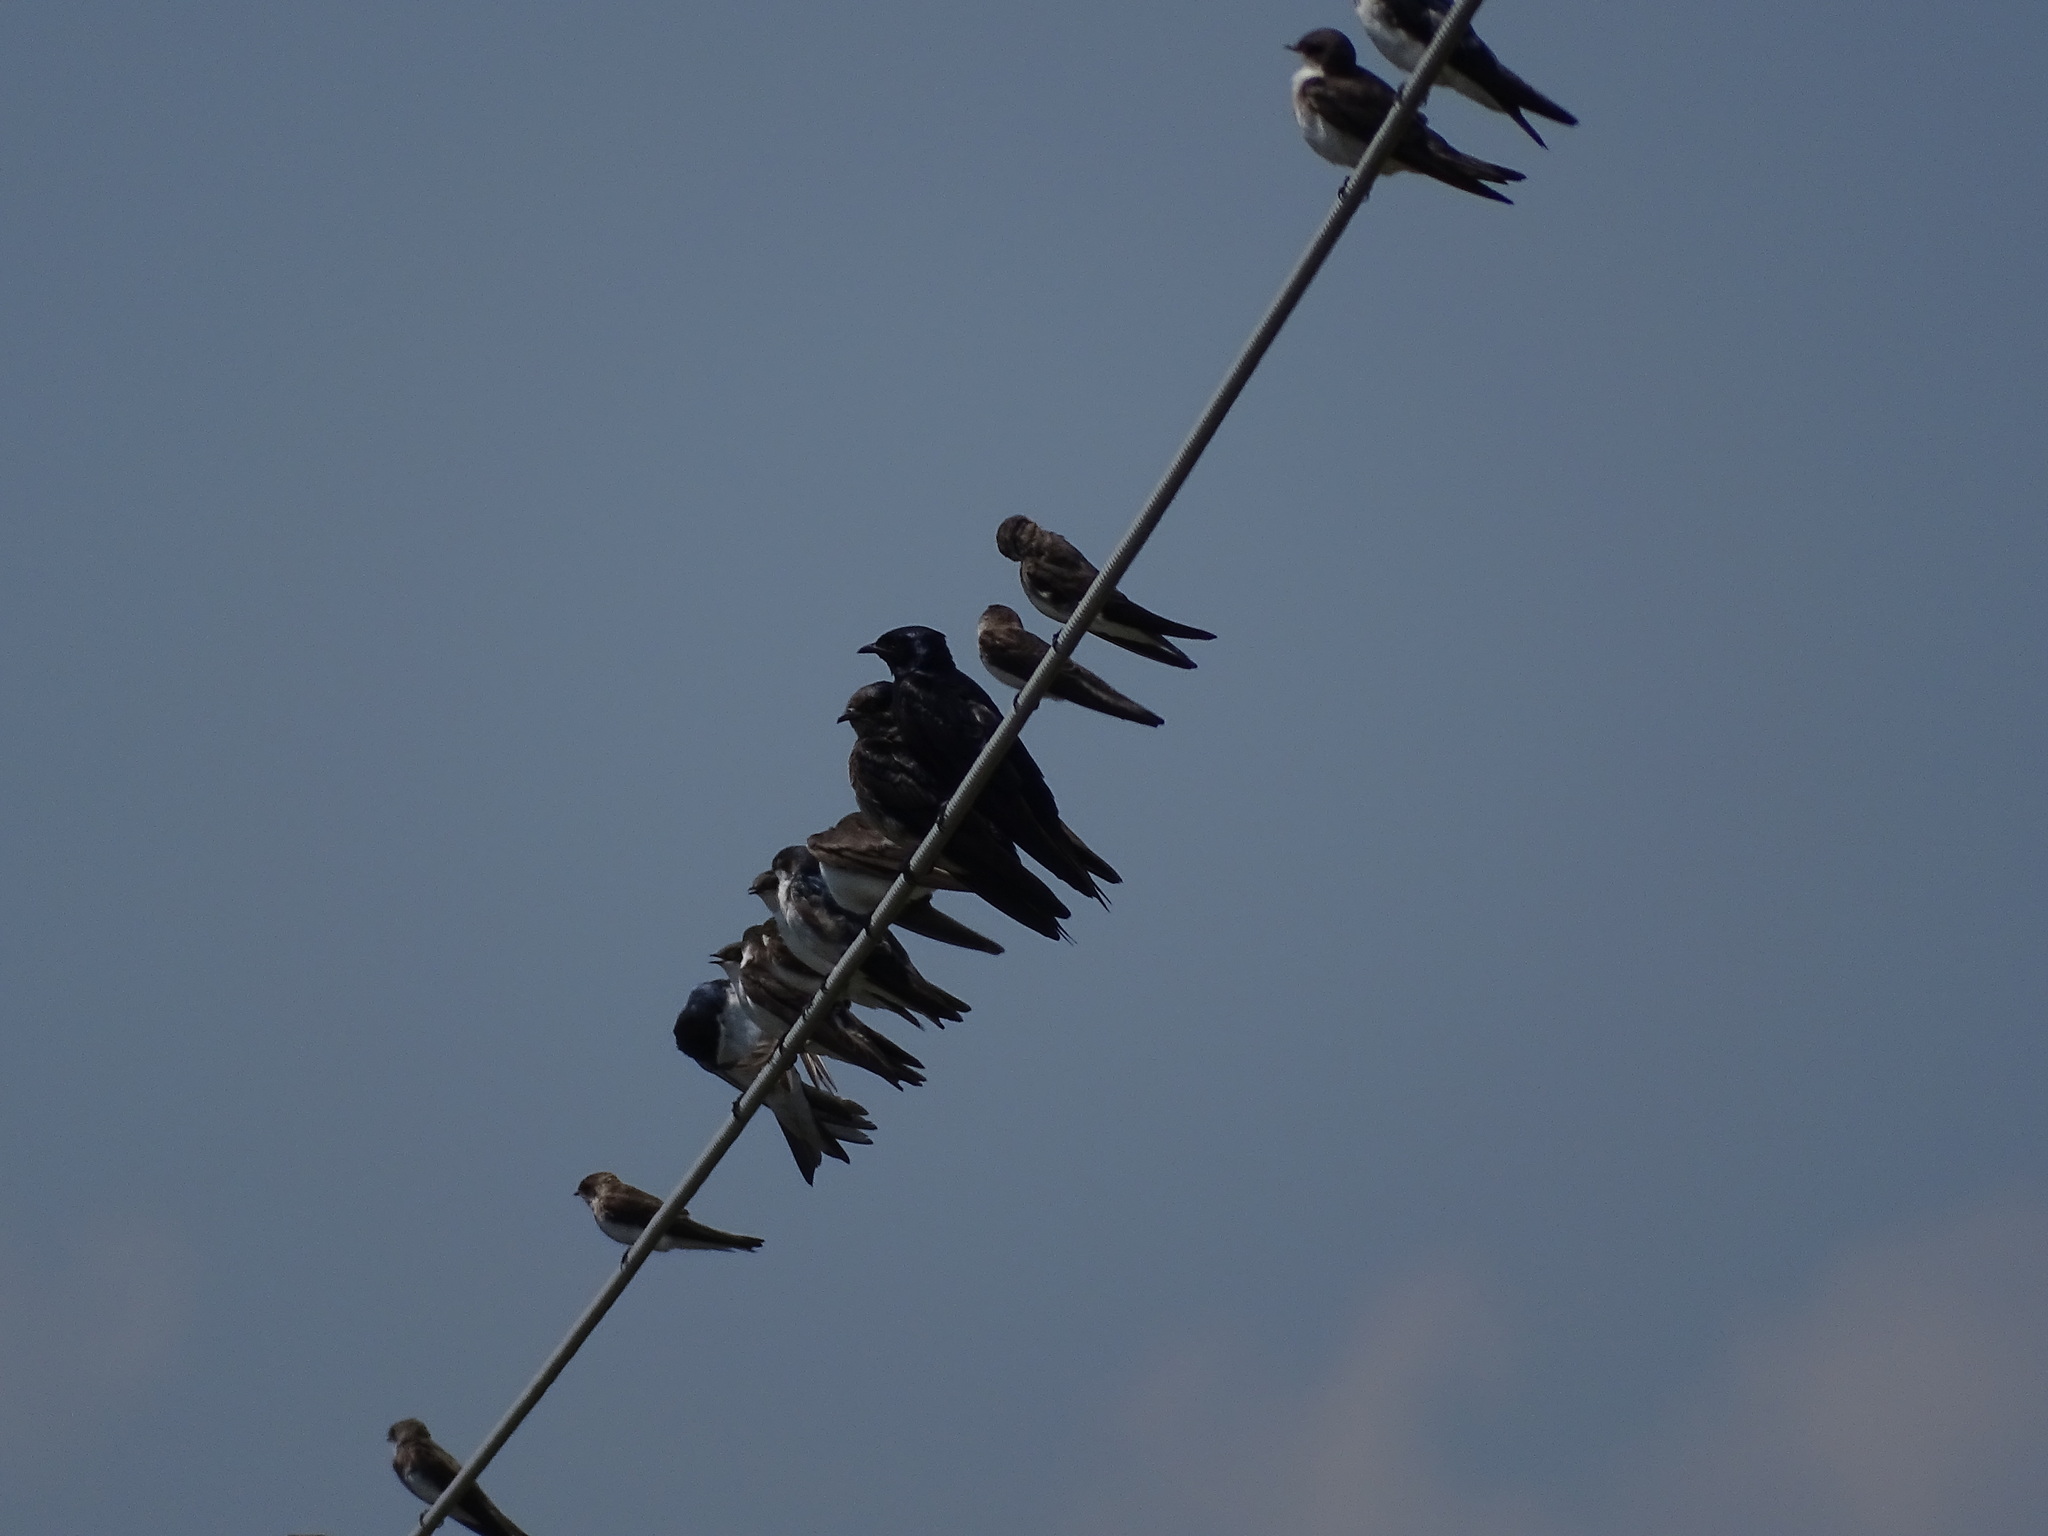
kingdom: Animalia
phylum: Chordata
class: Aves
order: Passeriformes
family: Hirundinidae
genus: Progne
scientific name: Progne subis
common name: Purple martin
